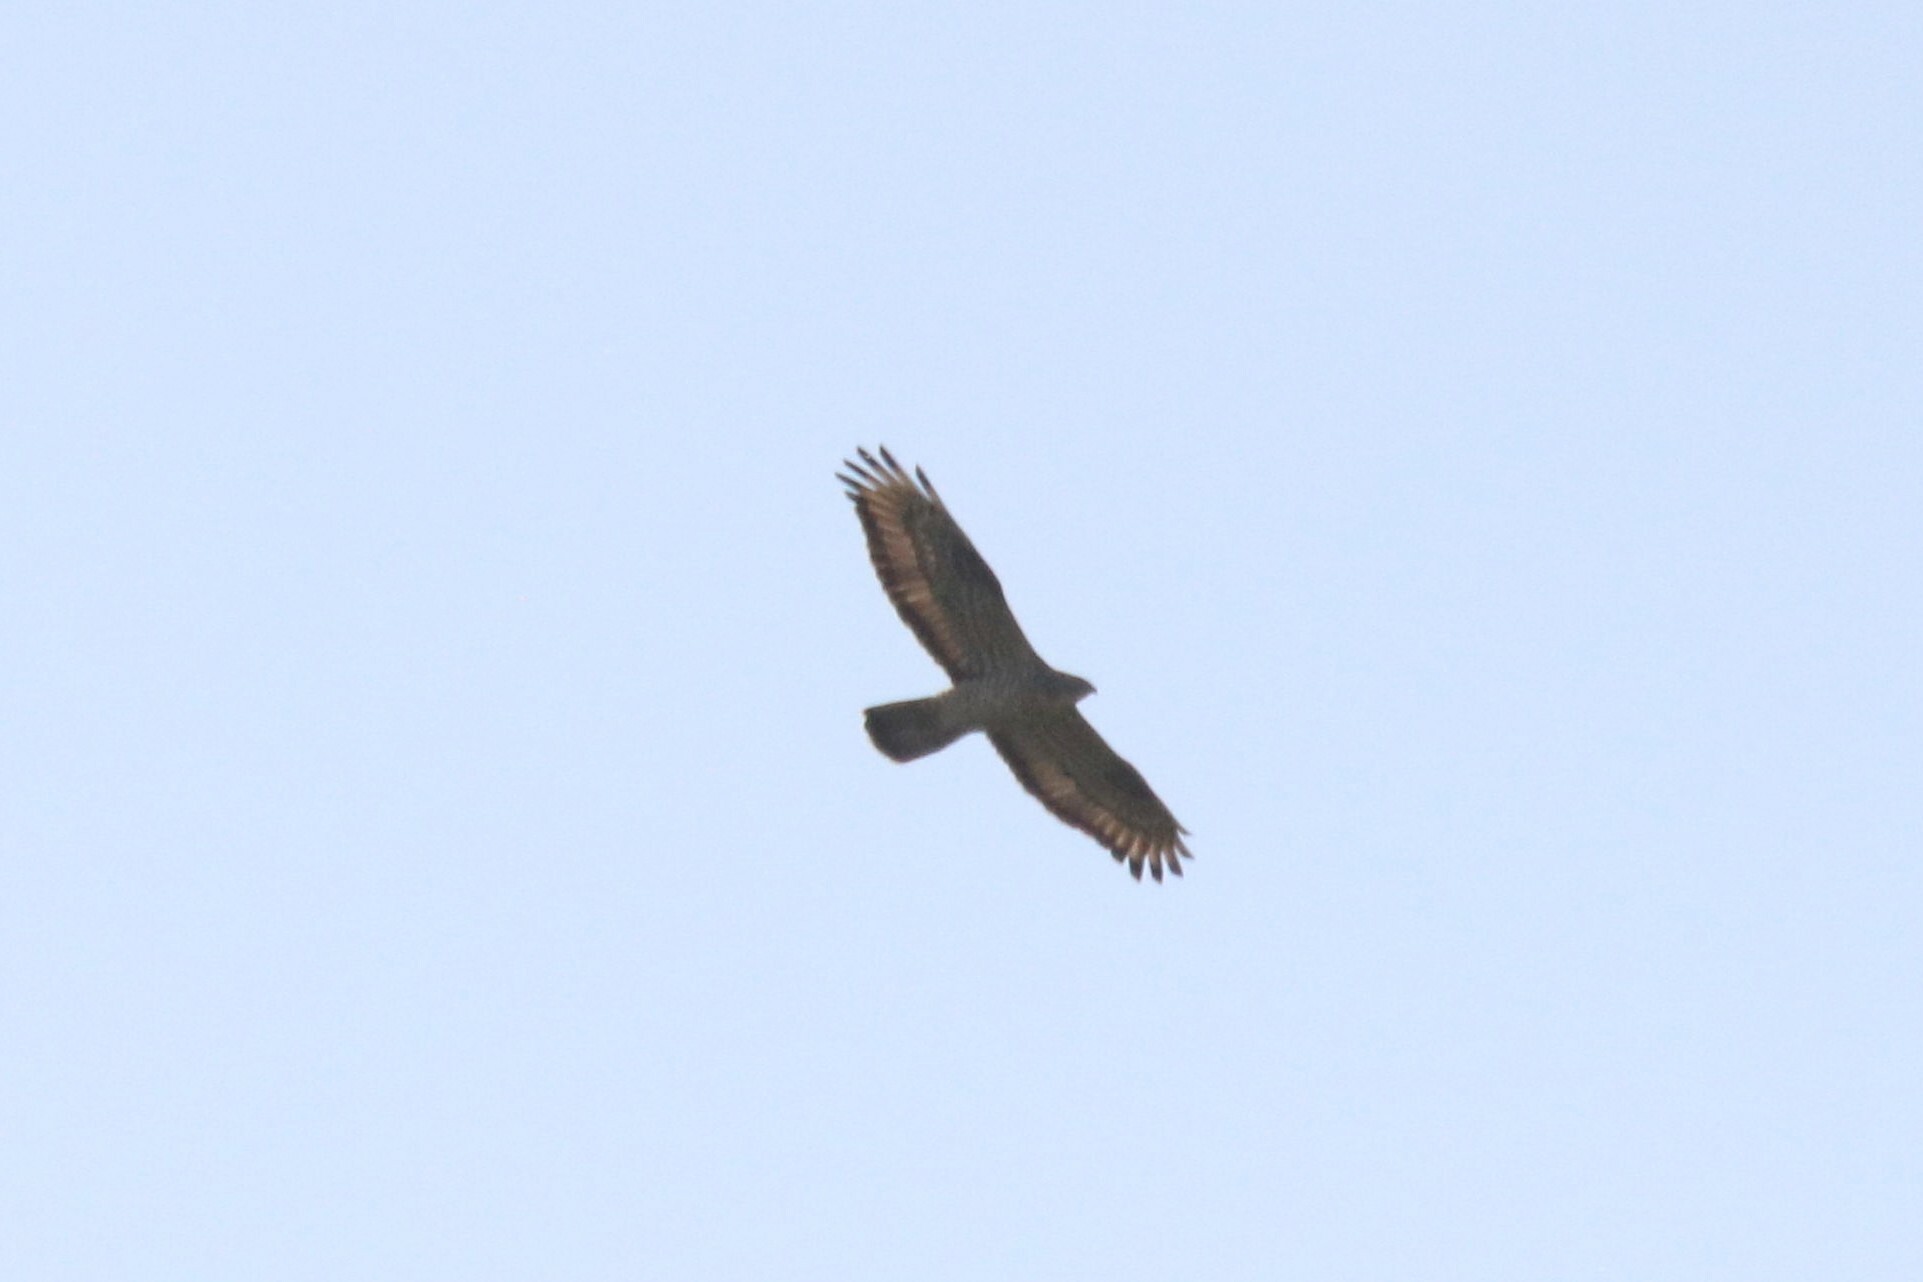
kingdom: Animalia
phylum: Chordata
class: Aves
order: Accipitriformes
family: Accipitridae
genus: Pernis
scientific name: Pernis apivorus
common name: European honey buzzard
